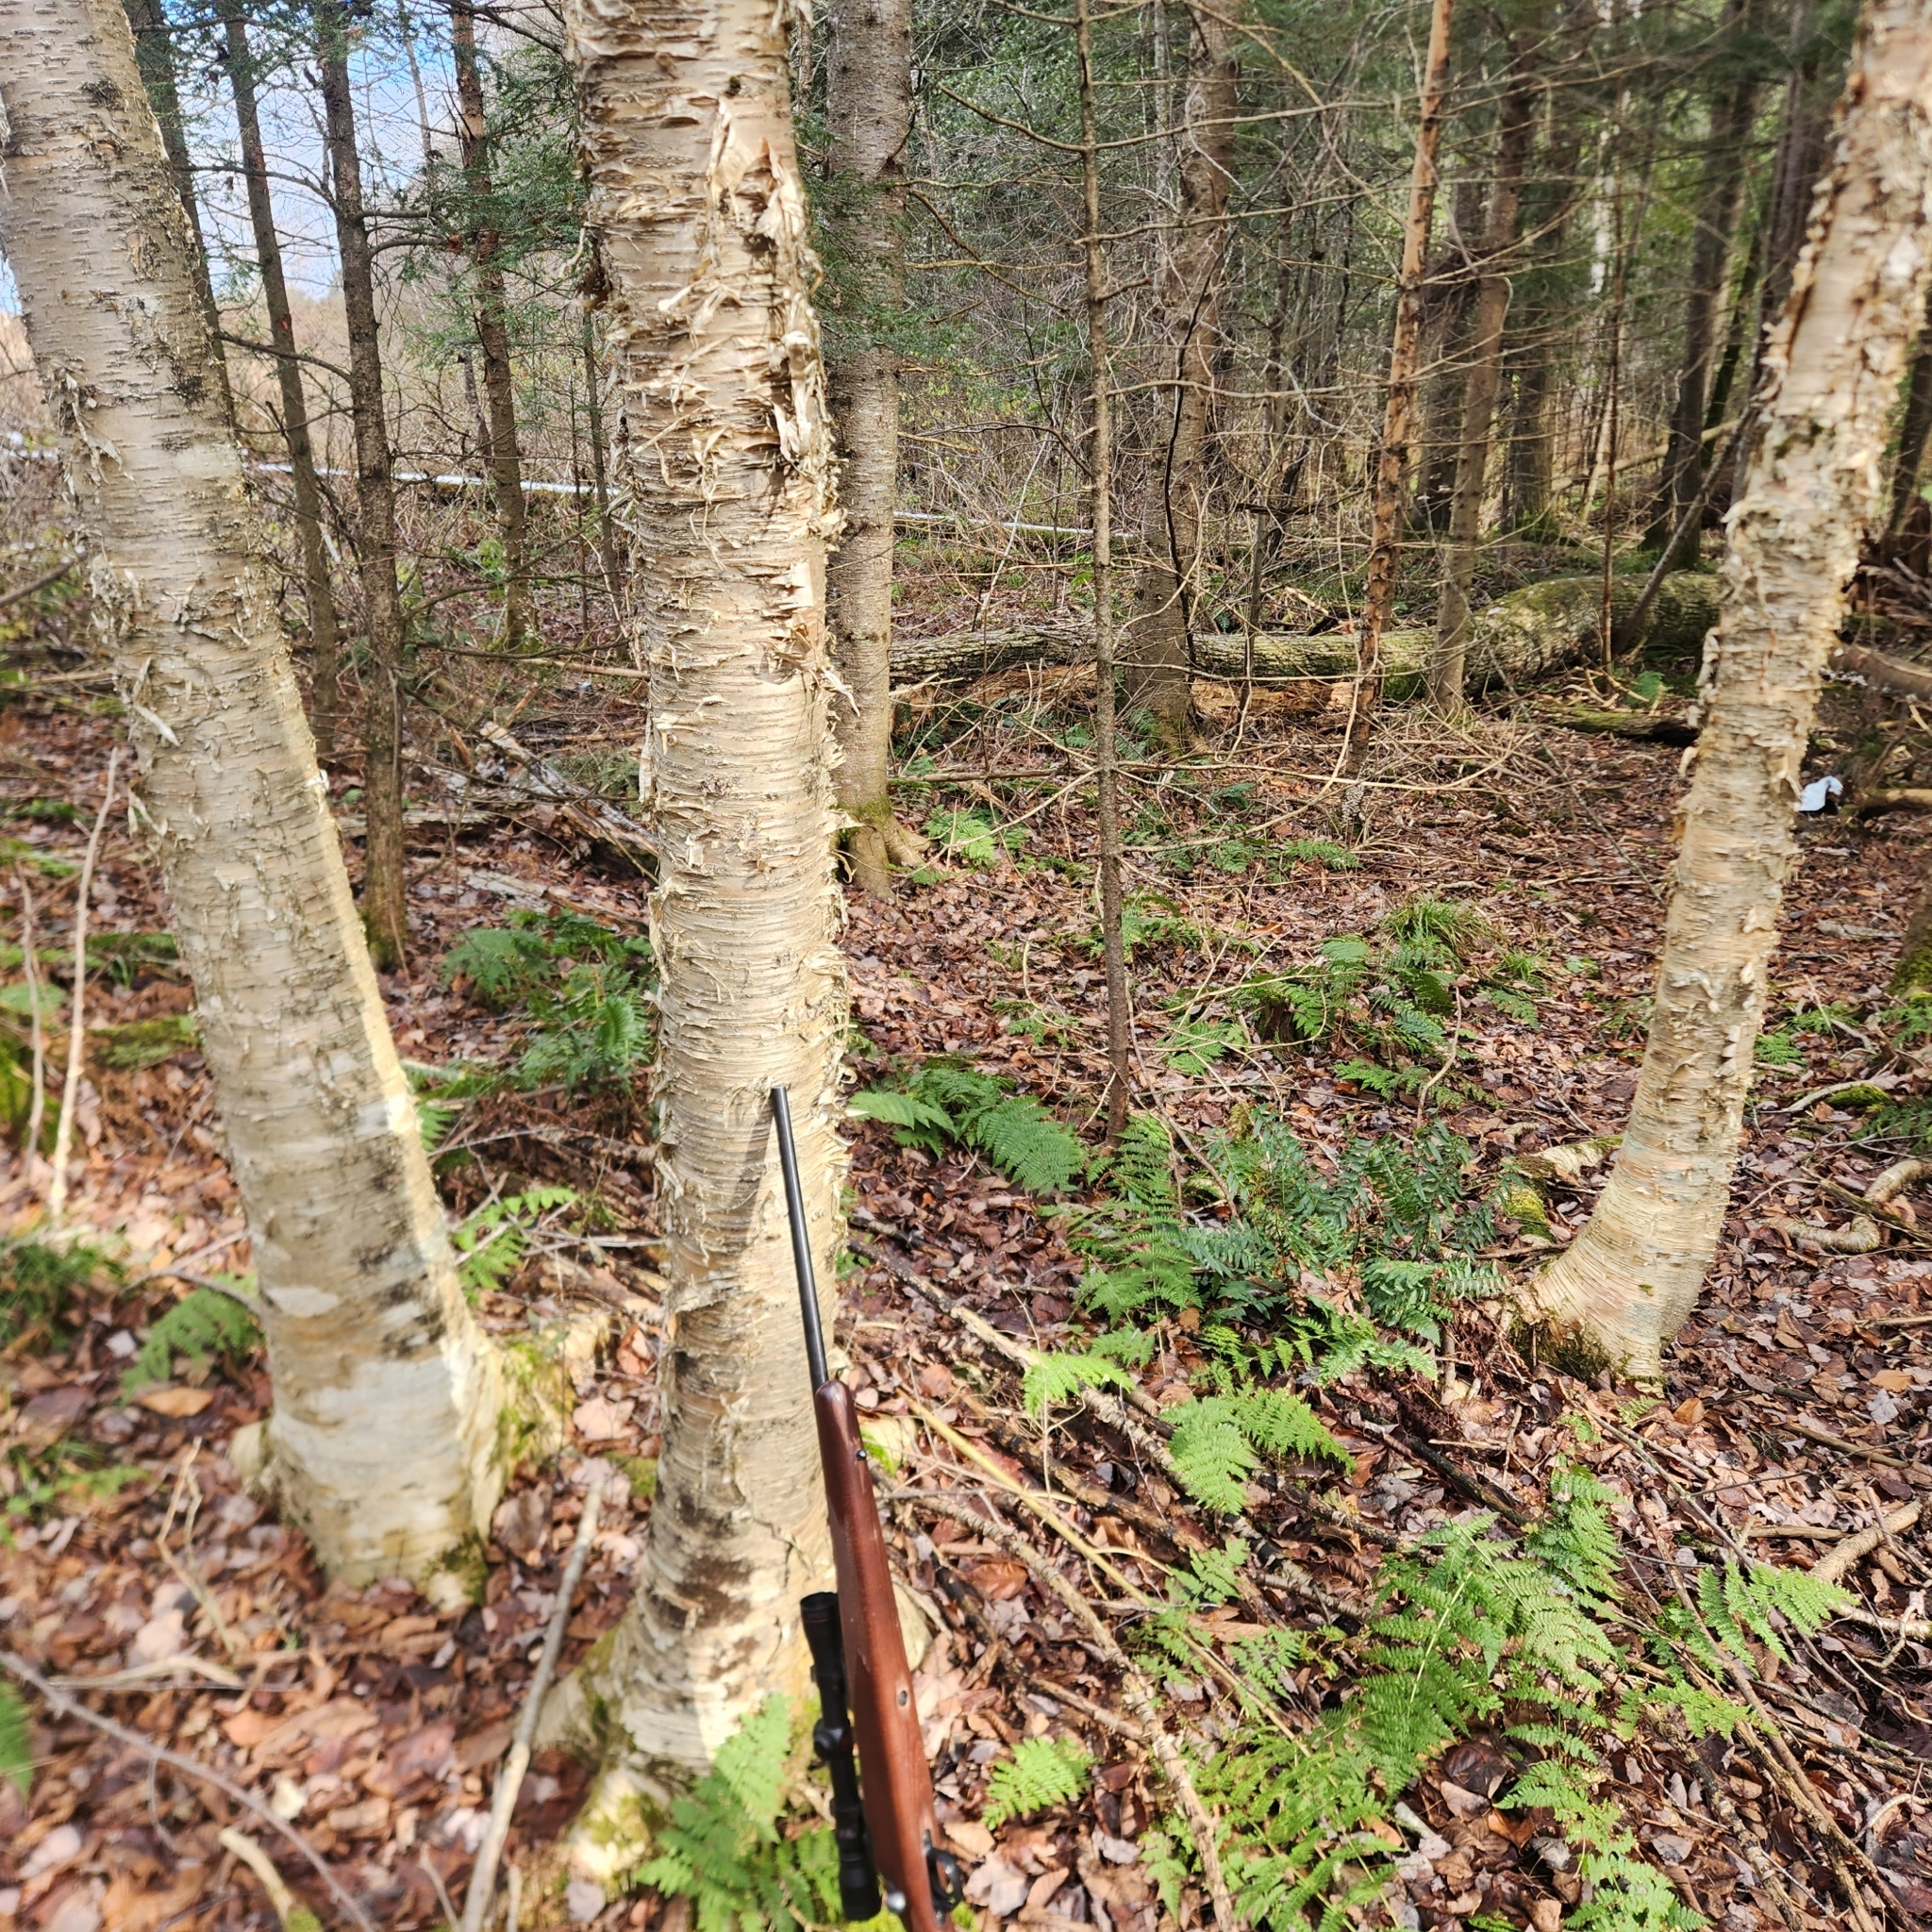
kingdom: Plantae
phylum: Tracheophyta
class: Magnoliopsida
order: Fagales
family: Betulaceae
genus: Betula
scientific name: Betula alleghaniensis
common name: Yellow birch
